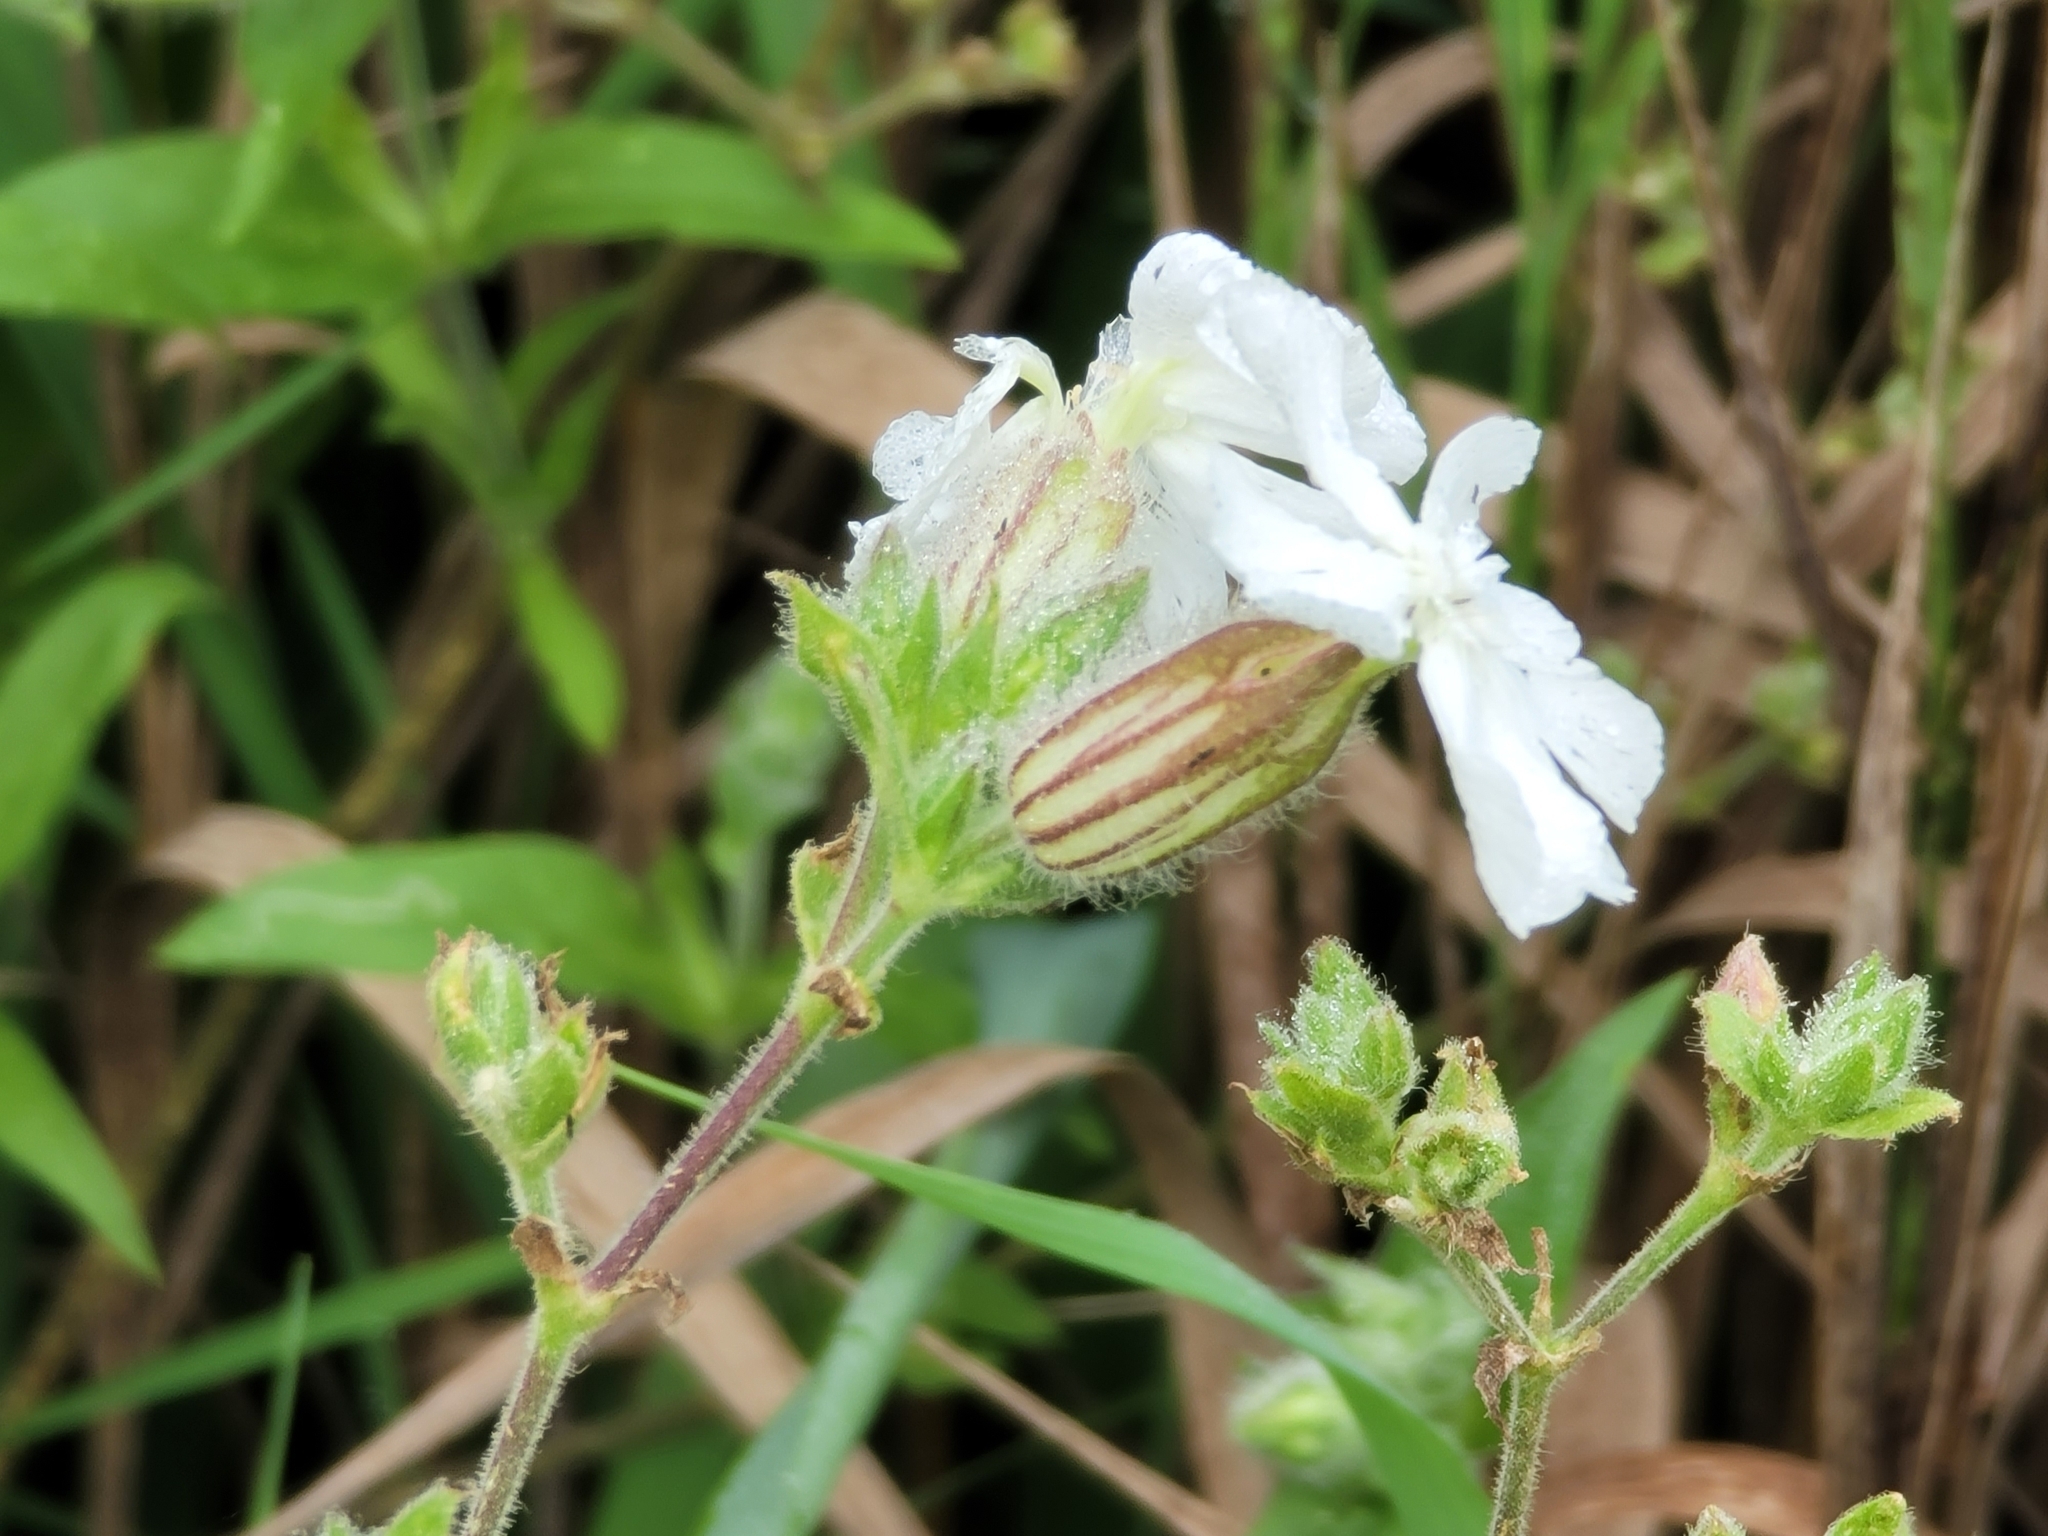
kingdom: Plantae
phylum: Tracheophyta
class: Magnoliopsida
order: Caryophyllales
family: Caryophyllaceae
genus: Silene
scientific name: Silene latifolia
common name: White campion
